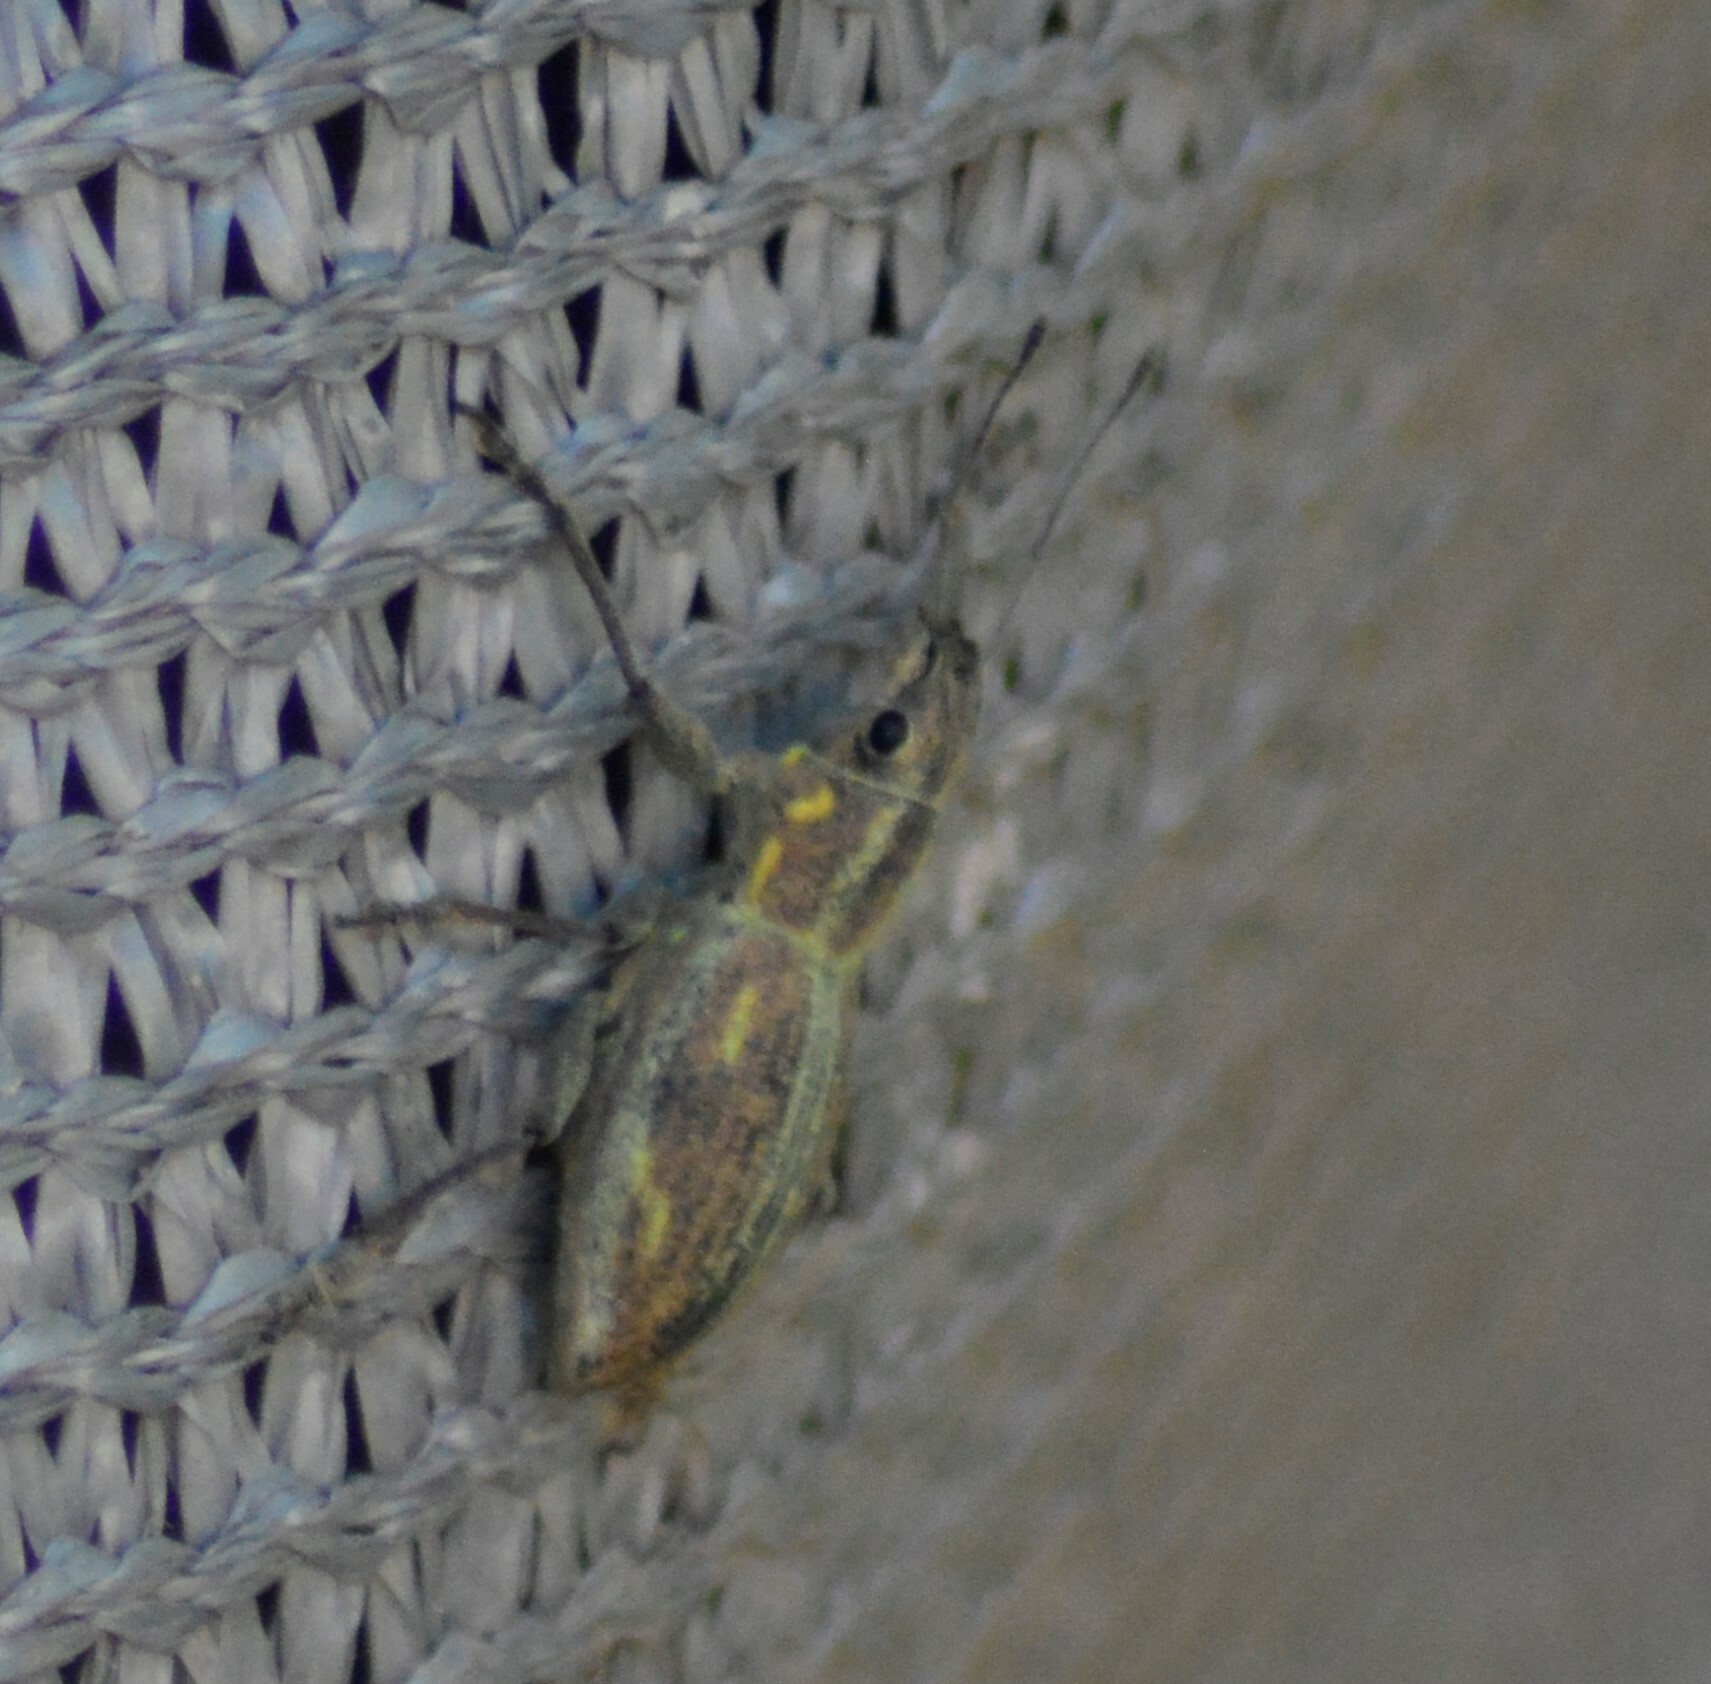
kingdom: Animalia
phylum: Arthropoda
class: Insecta
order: Coleoptera
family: Curculionidae
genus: Naupactus
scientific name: Naupactus xanthographus
